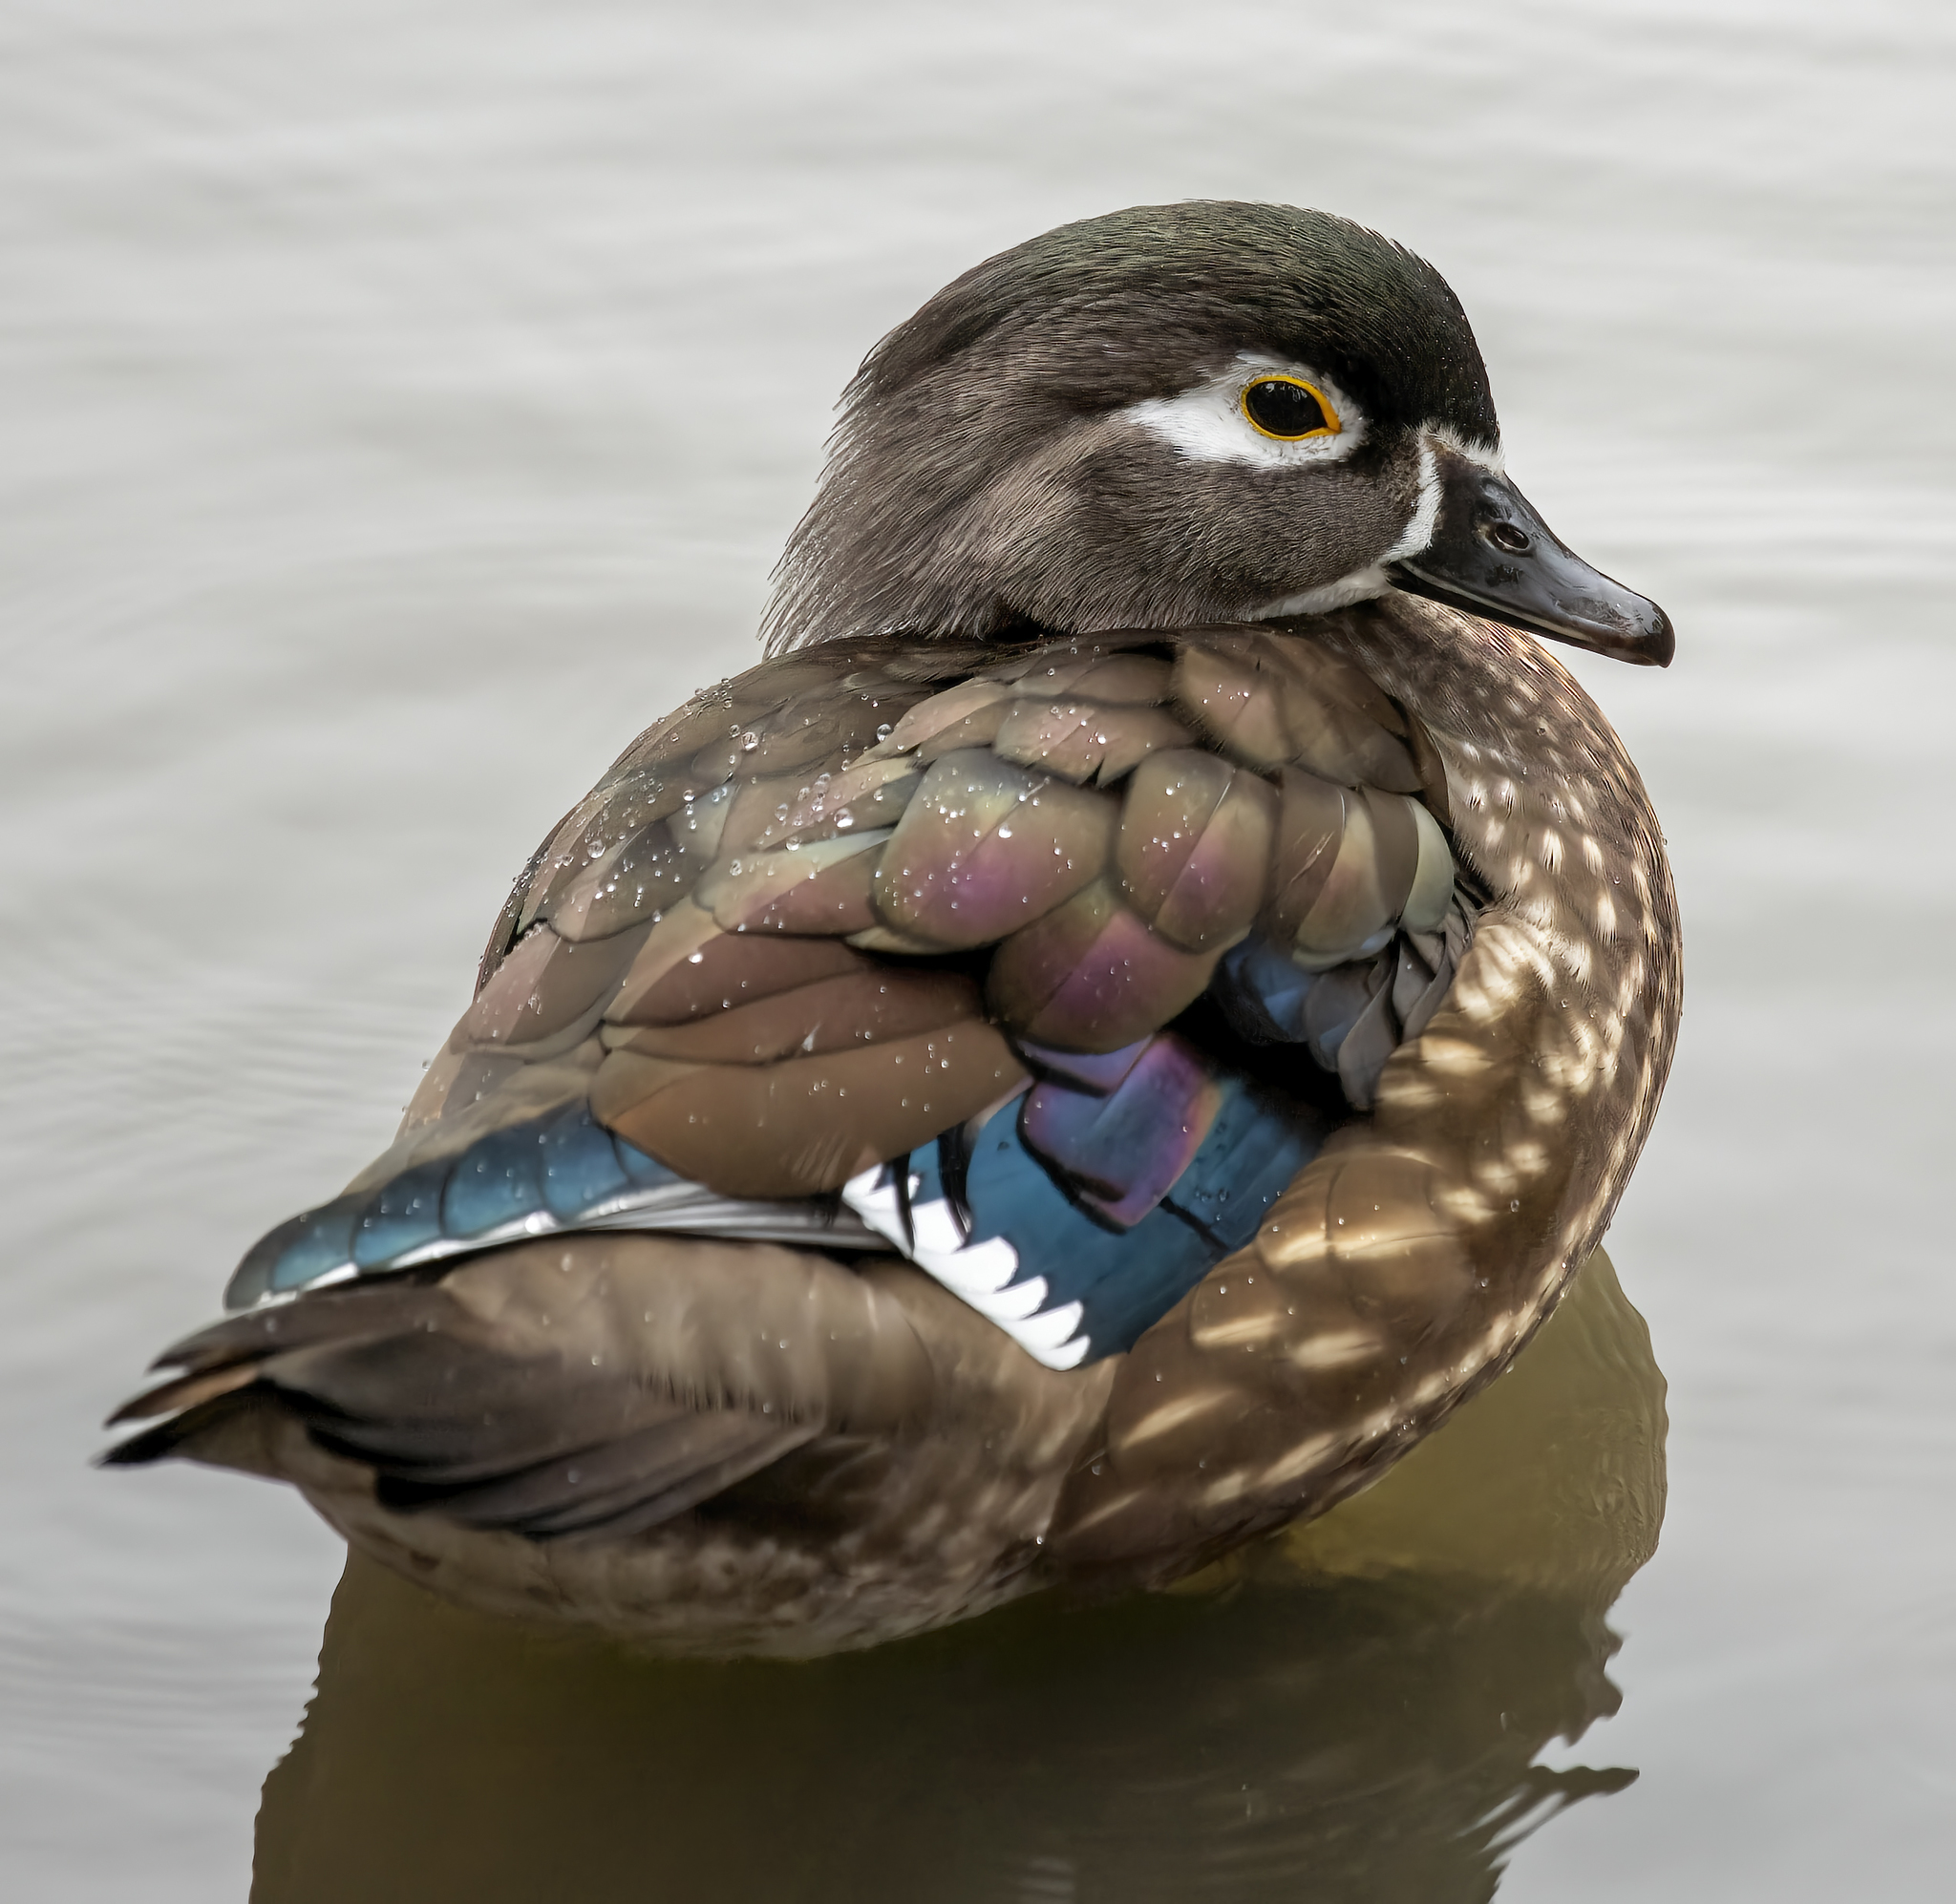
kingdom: Animalia
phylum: Chordata
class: Aves
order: Anseriformes
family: Anatidae
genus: Aix
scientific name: Aix sponsa
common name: Wood duck
